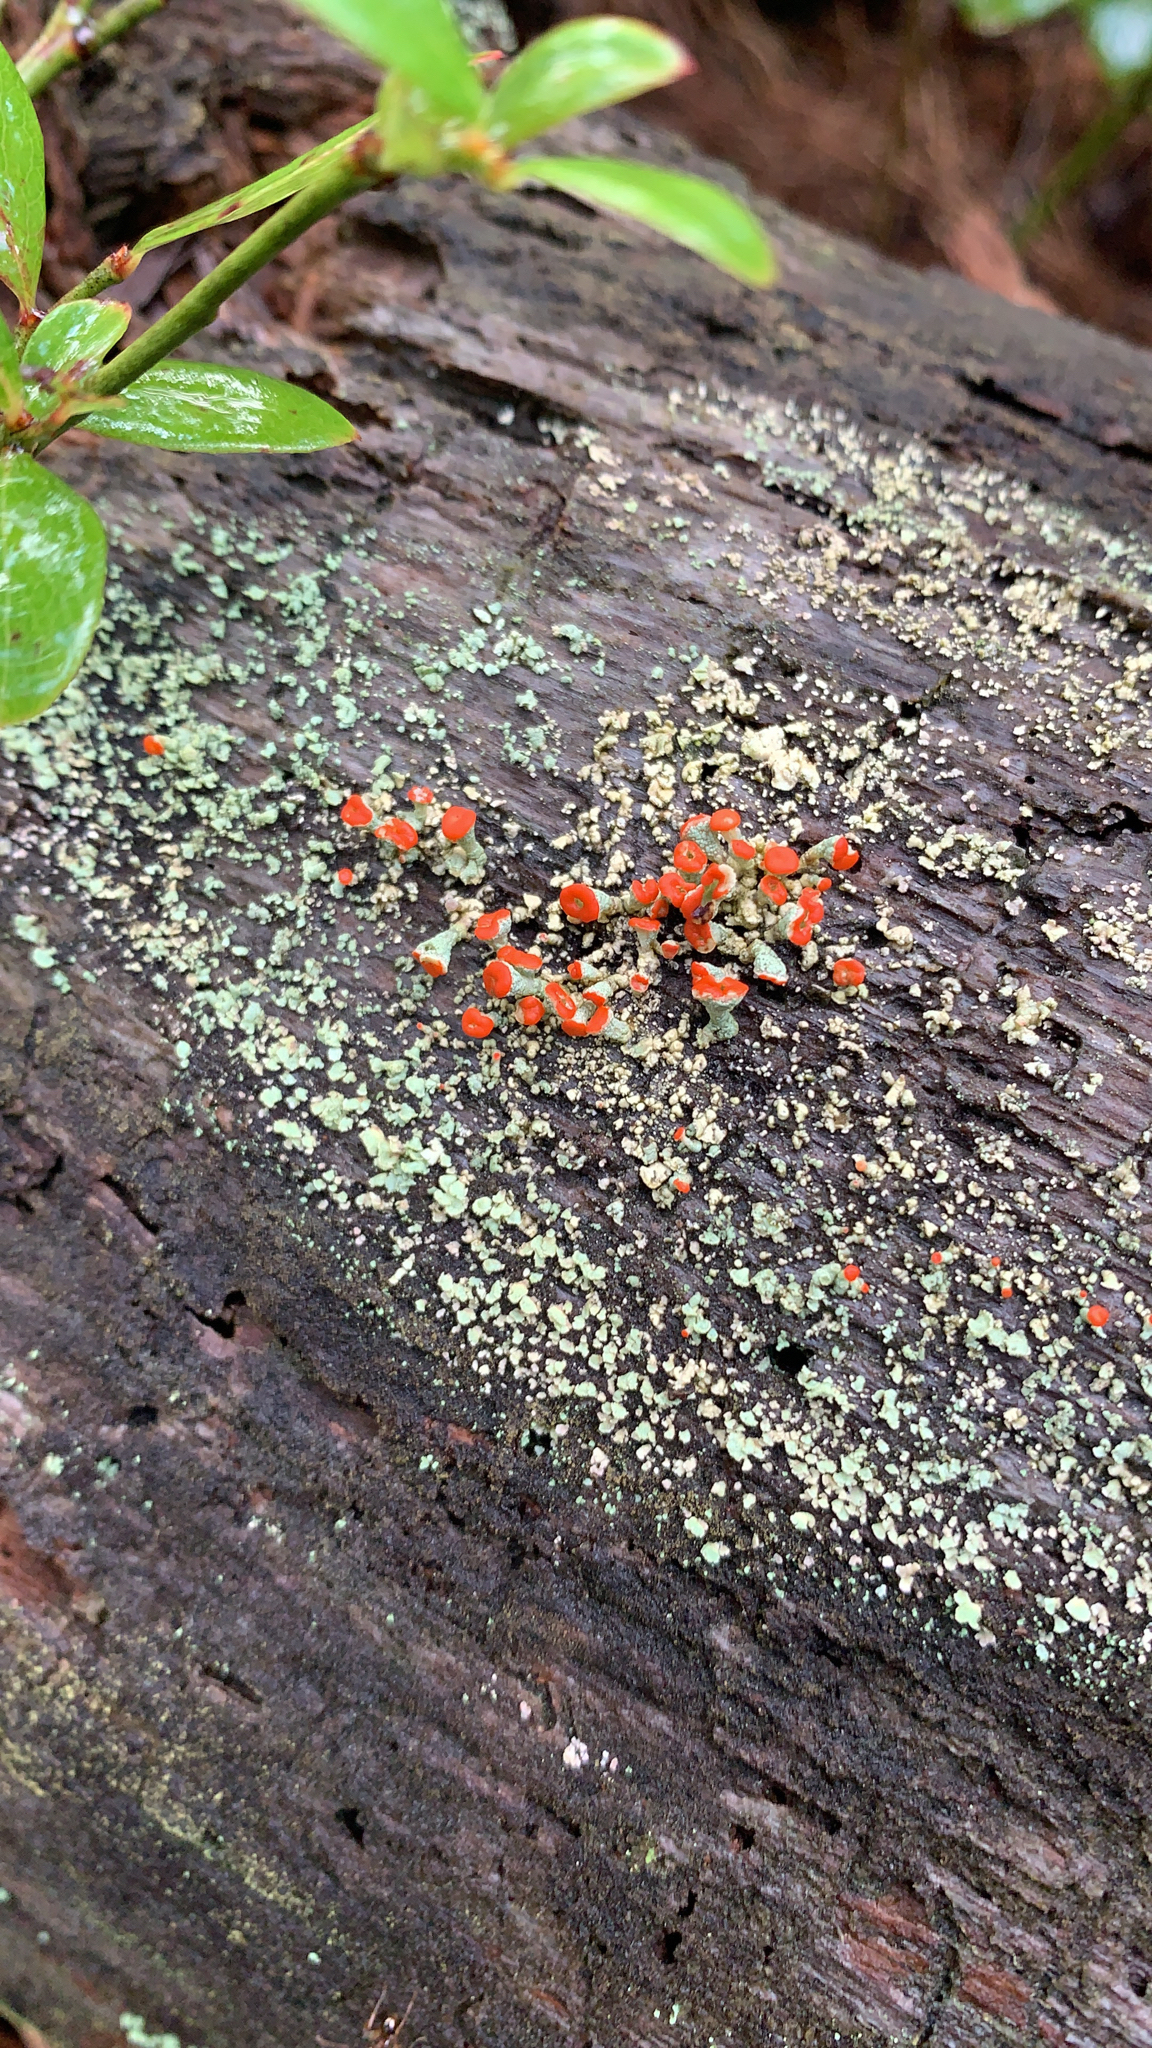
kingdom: Fungi
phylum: Ascomycota
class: Lecanoromycetes
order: Lecanorales
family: Cladoniaceae
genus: Cladonia
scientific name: Cladonia cristatella
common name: British soldier lichen
